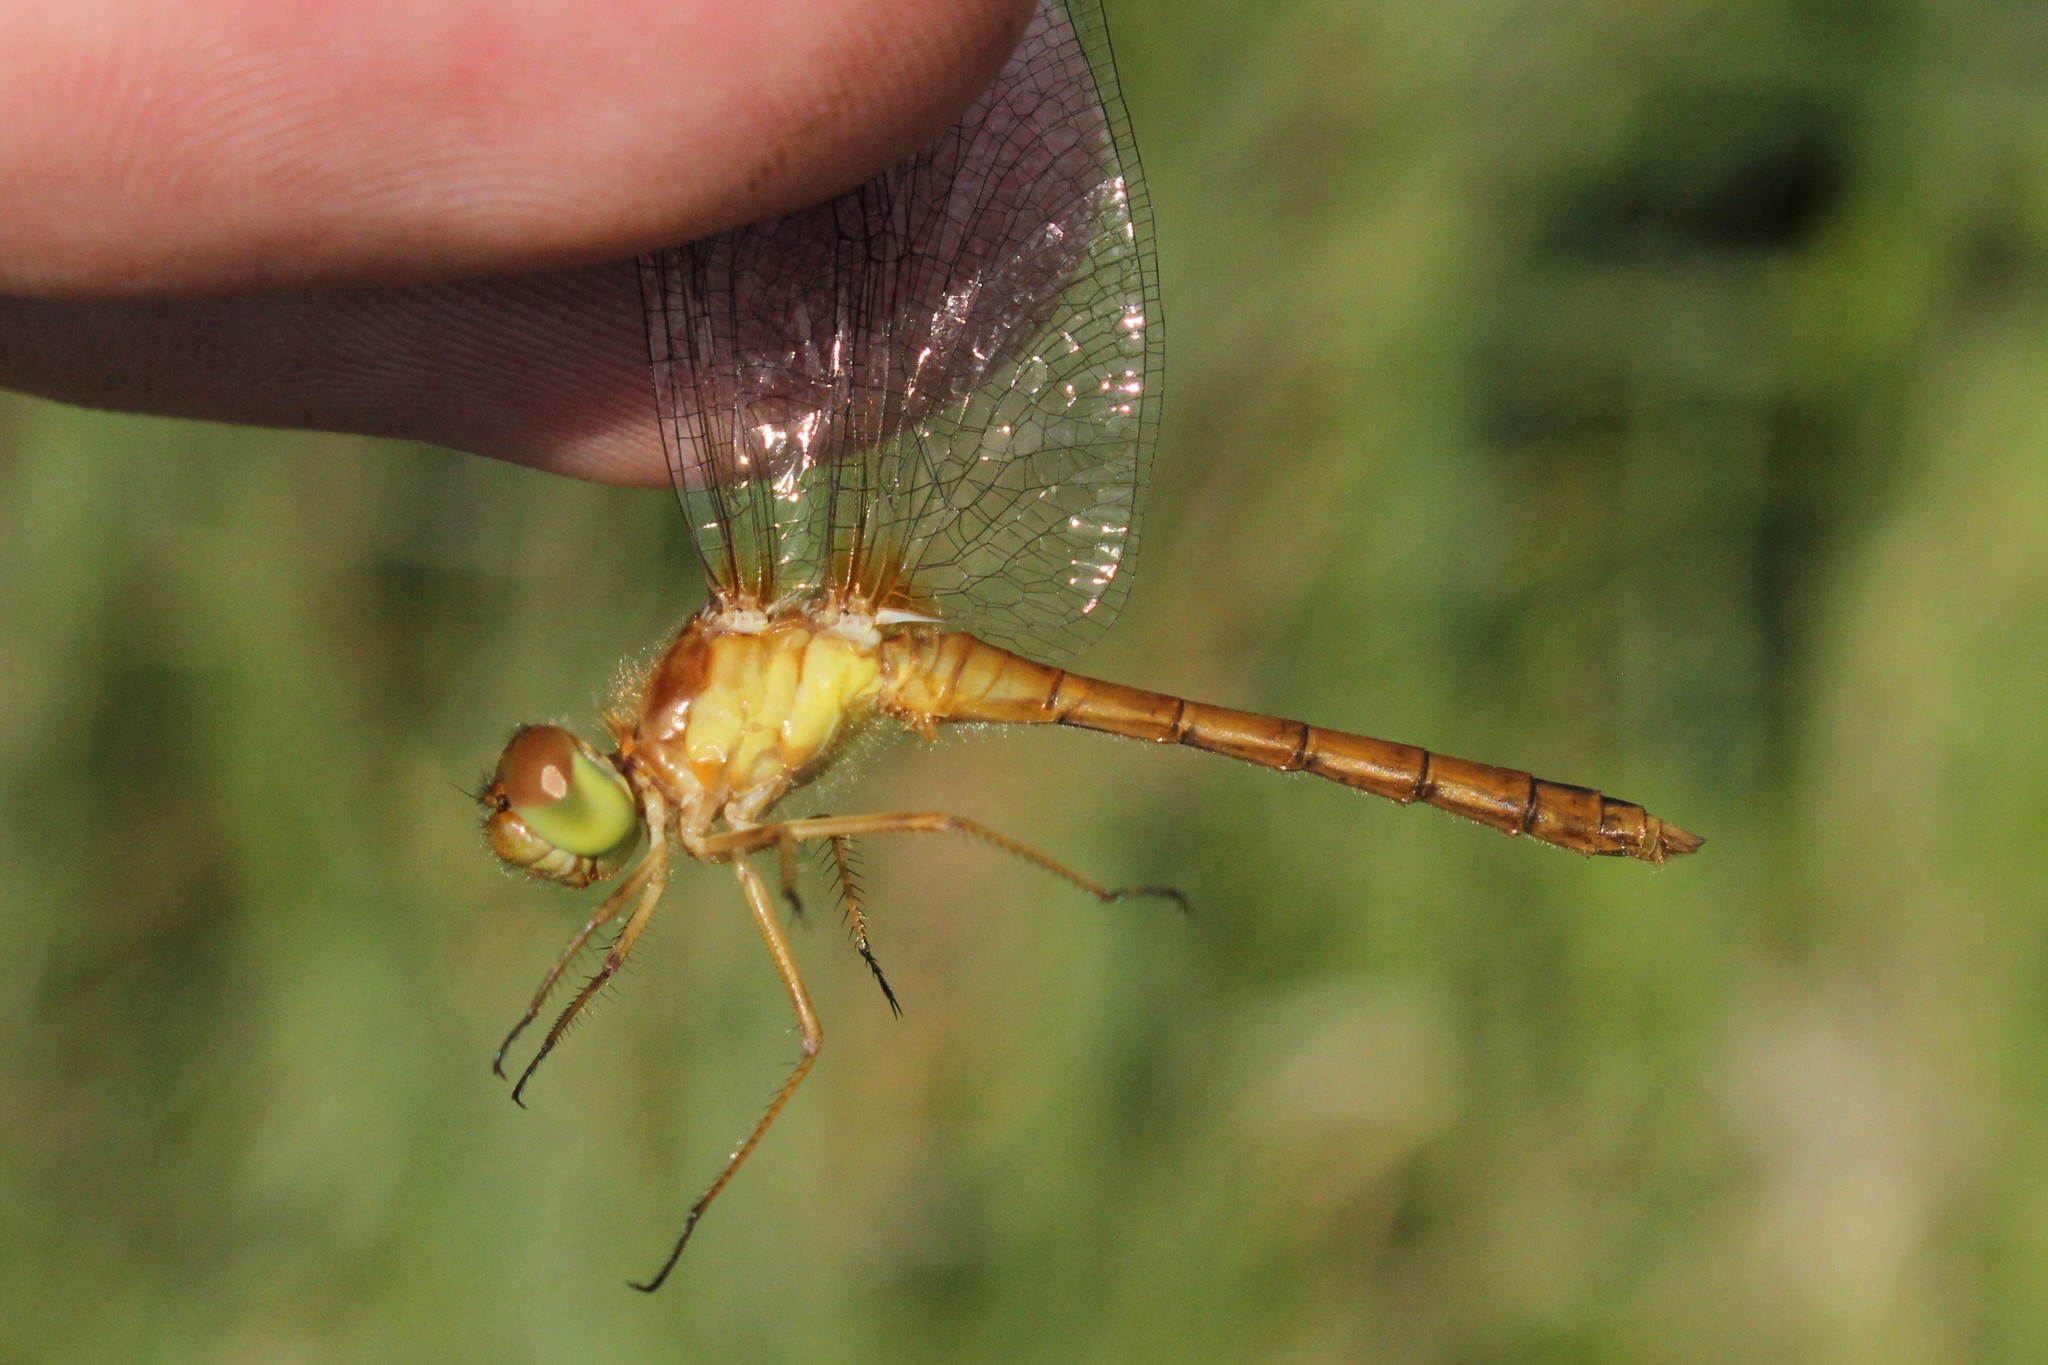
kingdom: Animalia
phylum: Arthropoda
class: Insecta
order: Odonata
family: Libellulidae
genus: Sympetrum
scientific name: Sympetrum vicinum
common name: Autumn meadowhawk
